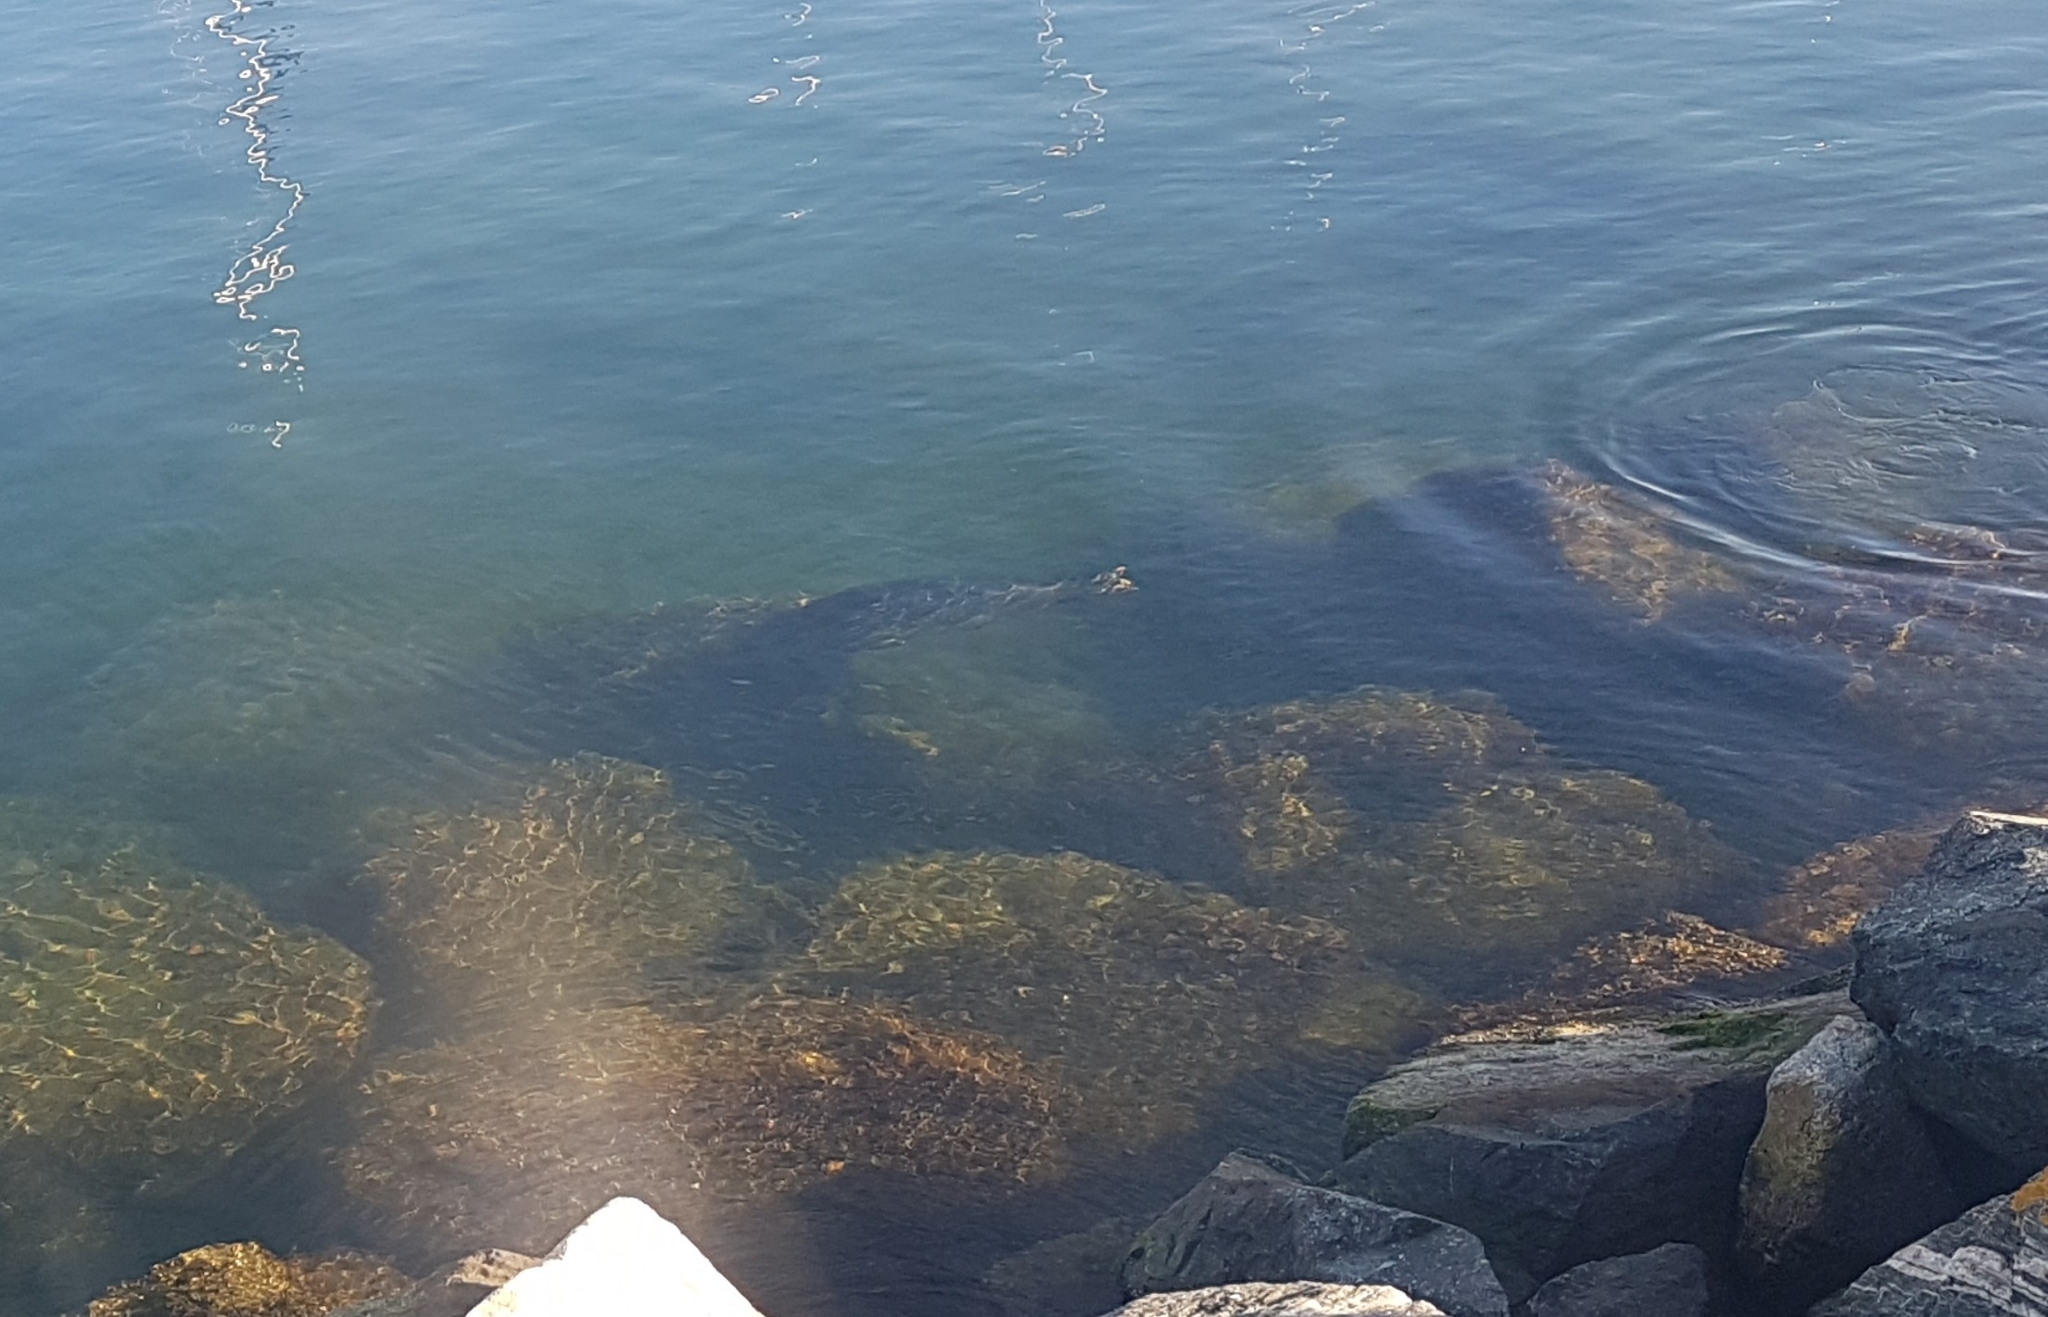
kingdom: Animalia
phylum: Chordata
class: Mammalia
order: Carnivora
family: Phocidae
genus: Phoca
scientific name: Phoca vitulina
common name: Harbor seal
